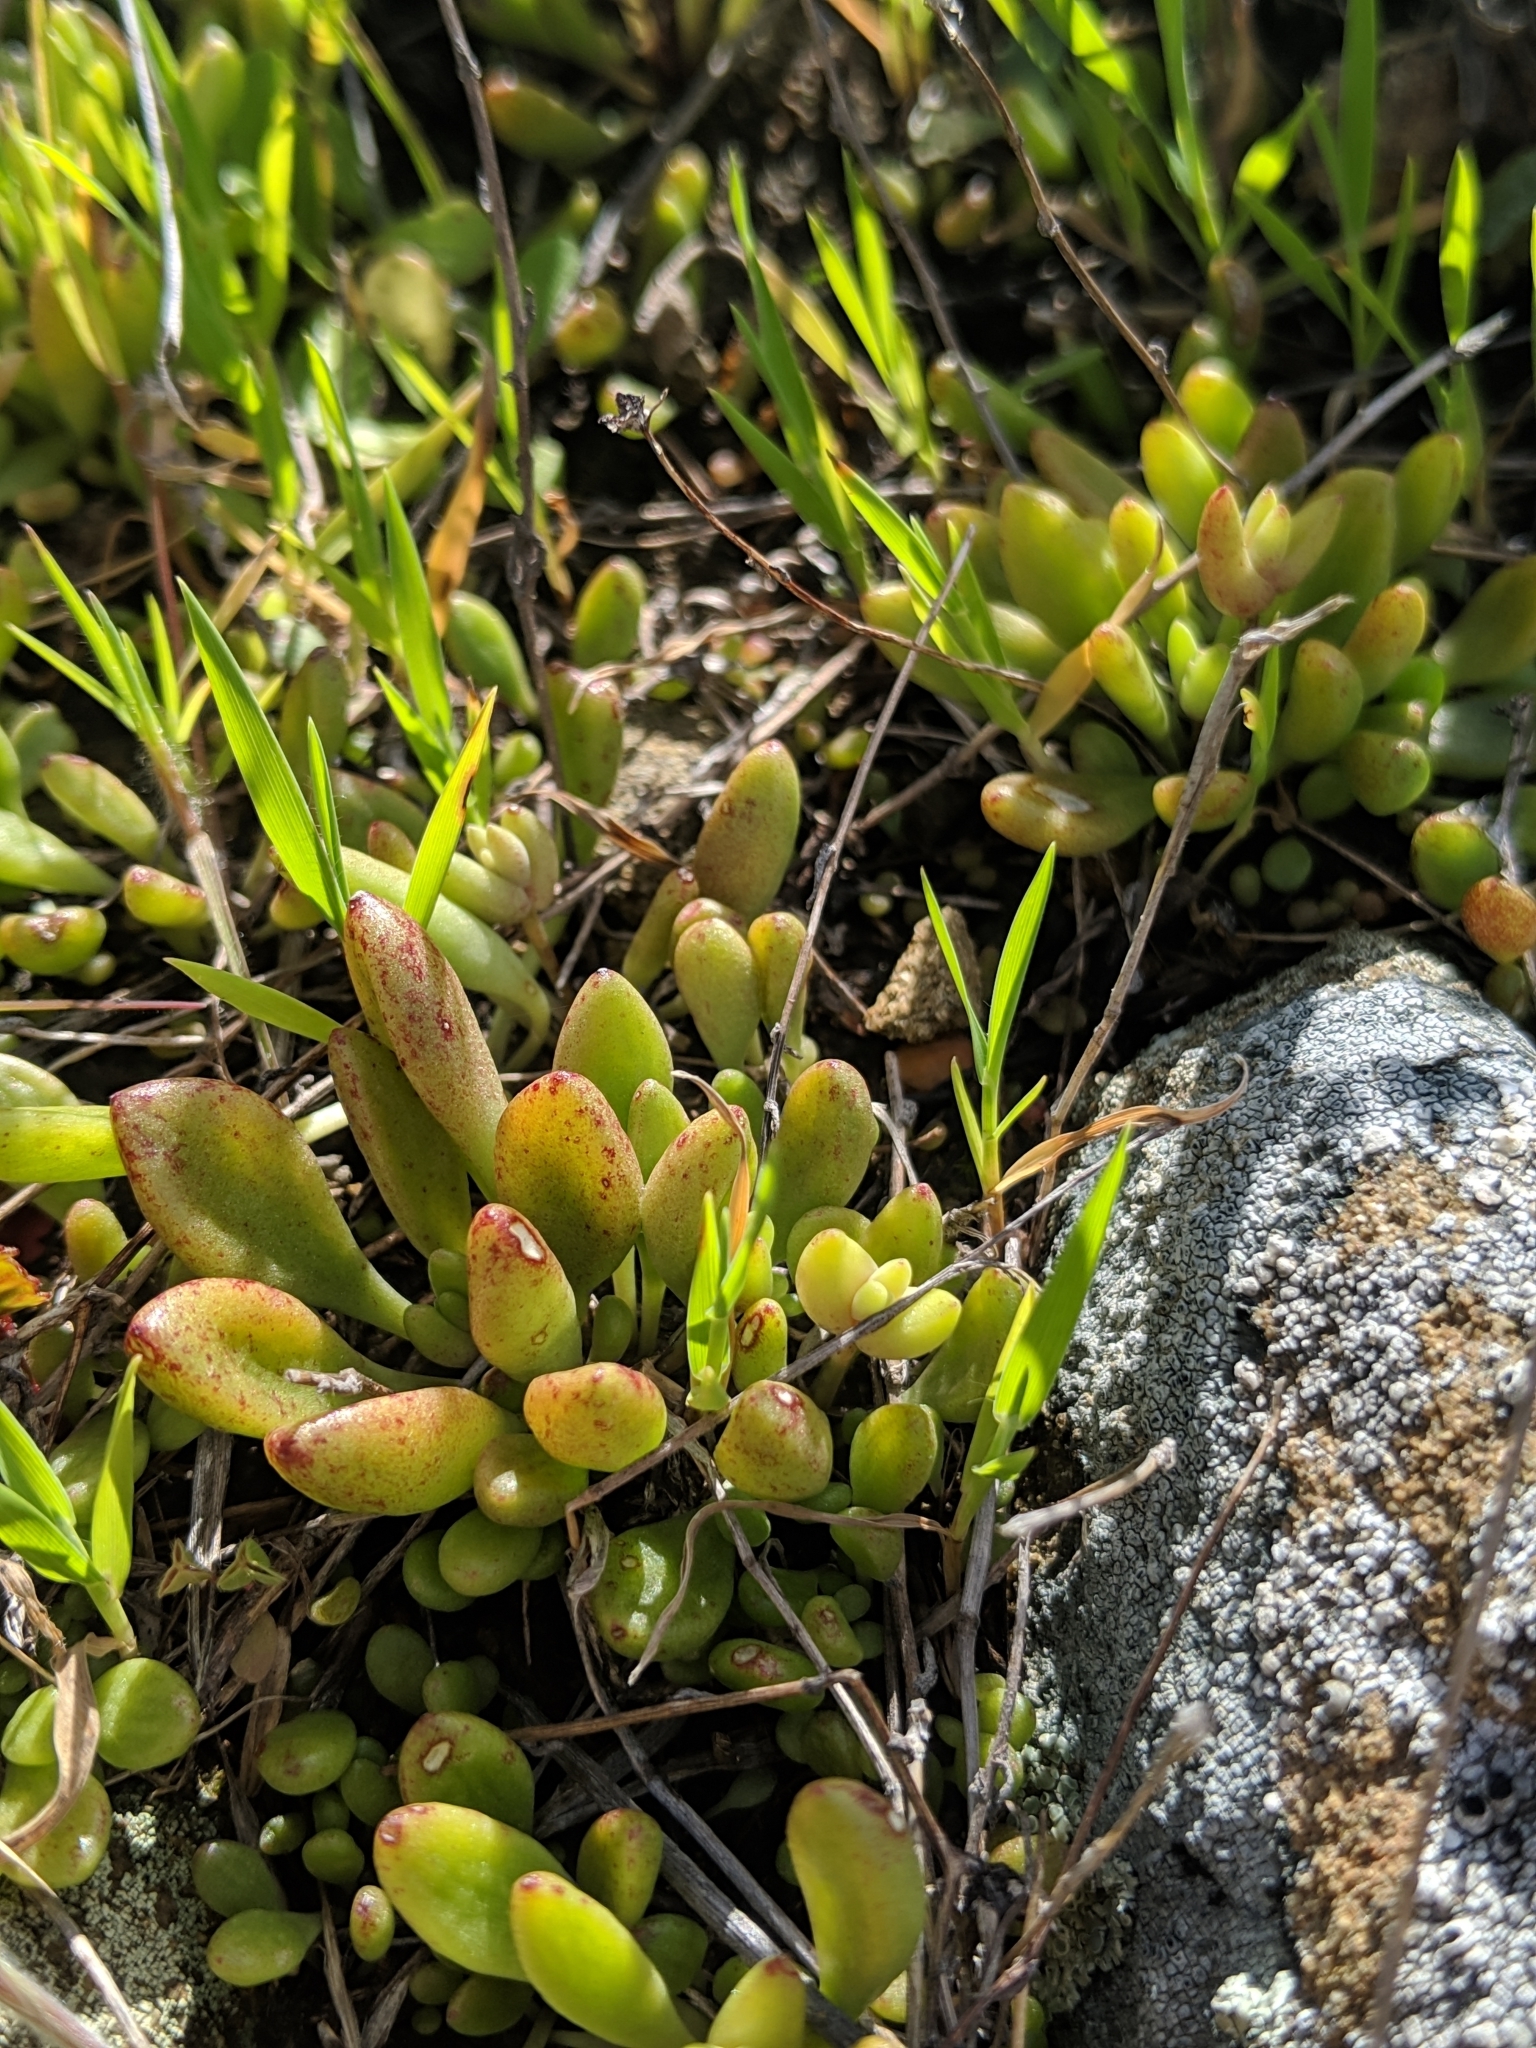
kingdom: Plantae
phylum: Tracheophyta
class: Magnoliopsida
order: Saxifragales
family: Crassulaceae
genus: Dudleya
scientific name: Dudleya blochmaniae
